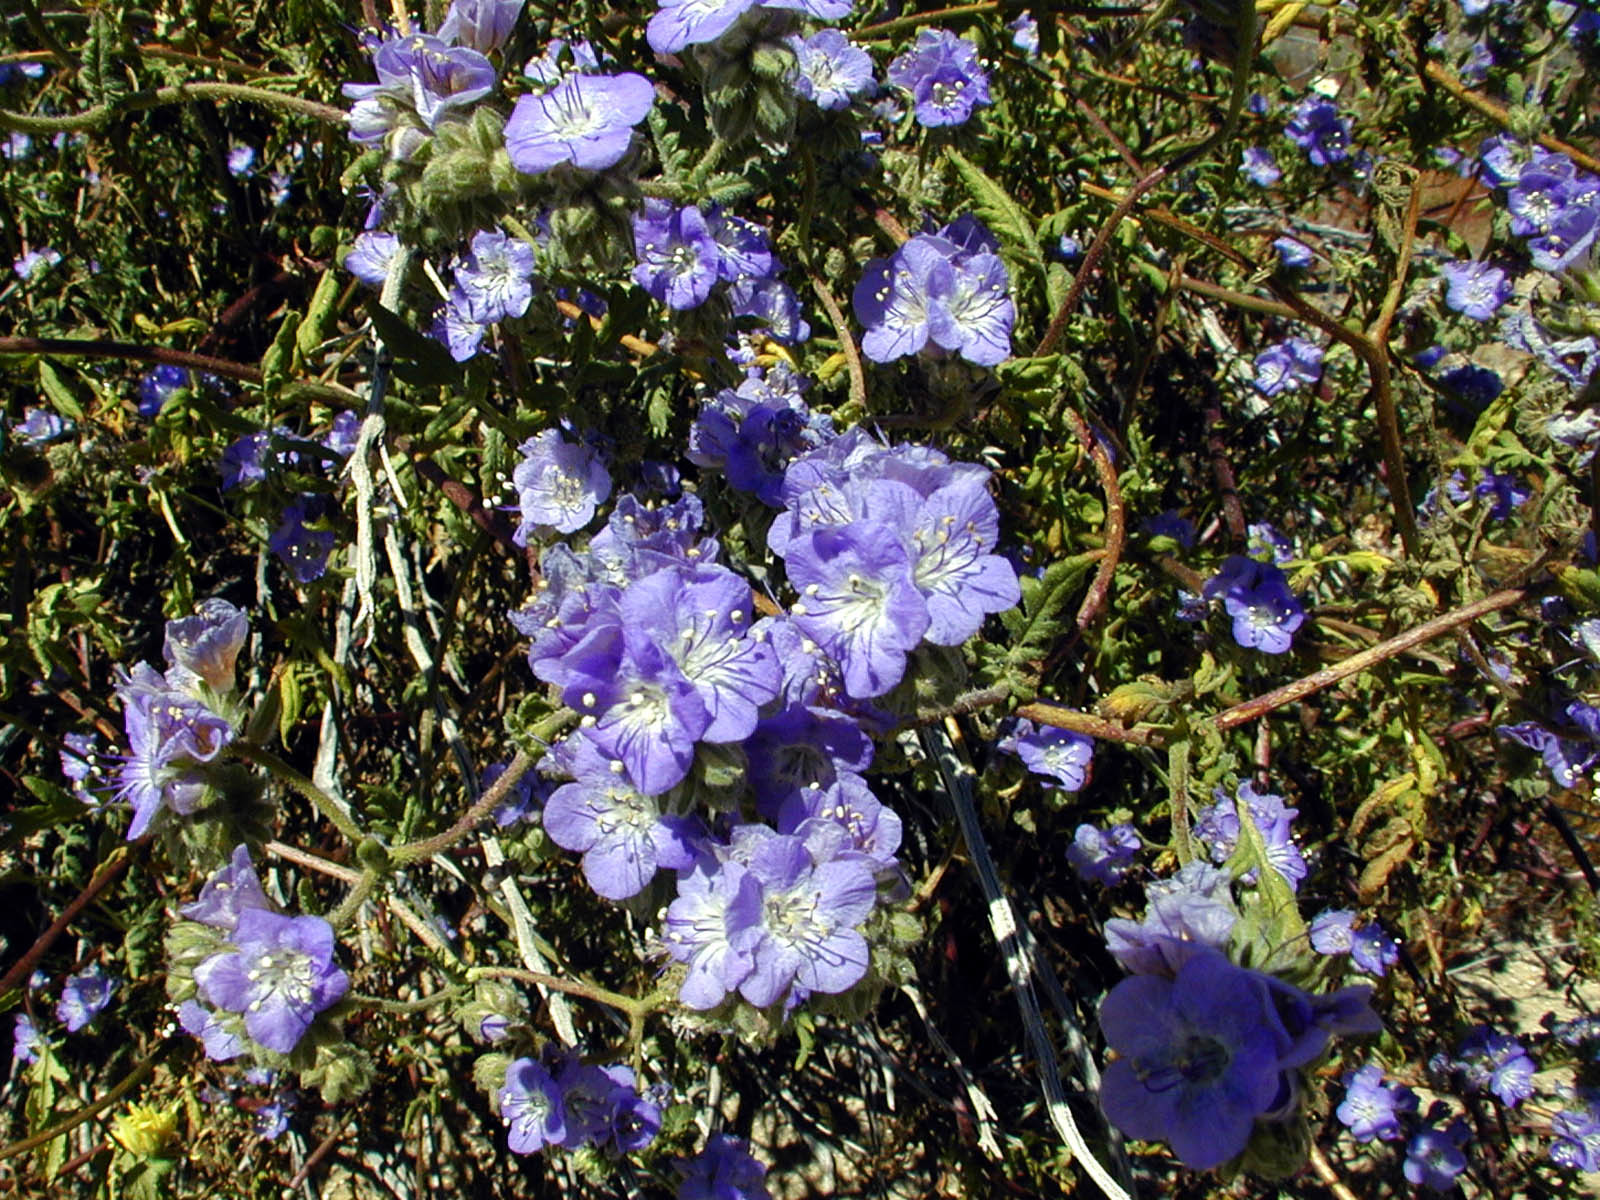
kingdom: Plantae
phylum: Tracheophyta
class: Magnoliopsida
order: Boraginales
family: Hydrophyllaceae
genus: Phacelia
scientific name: Phacelia crenulata
